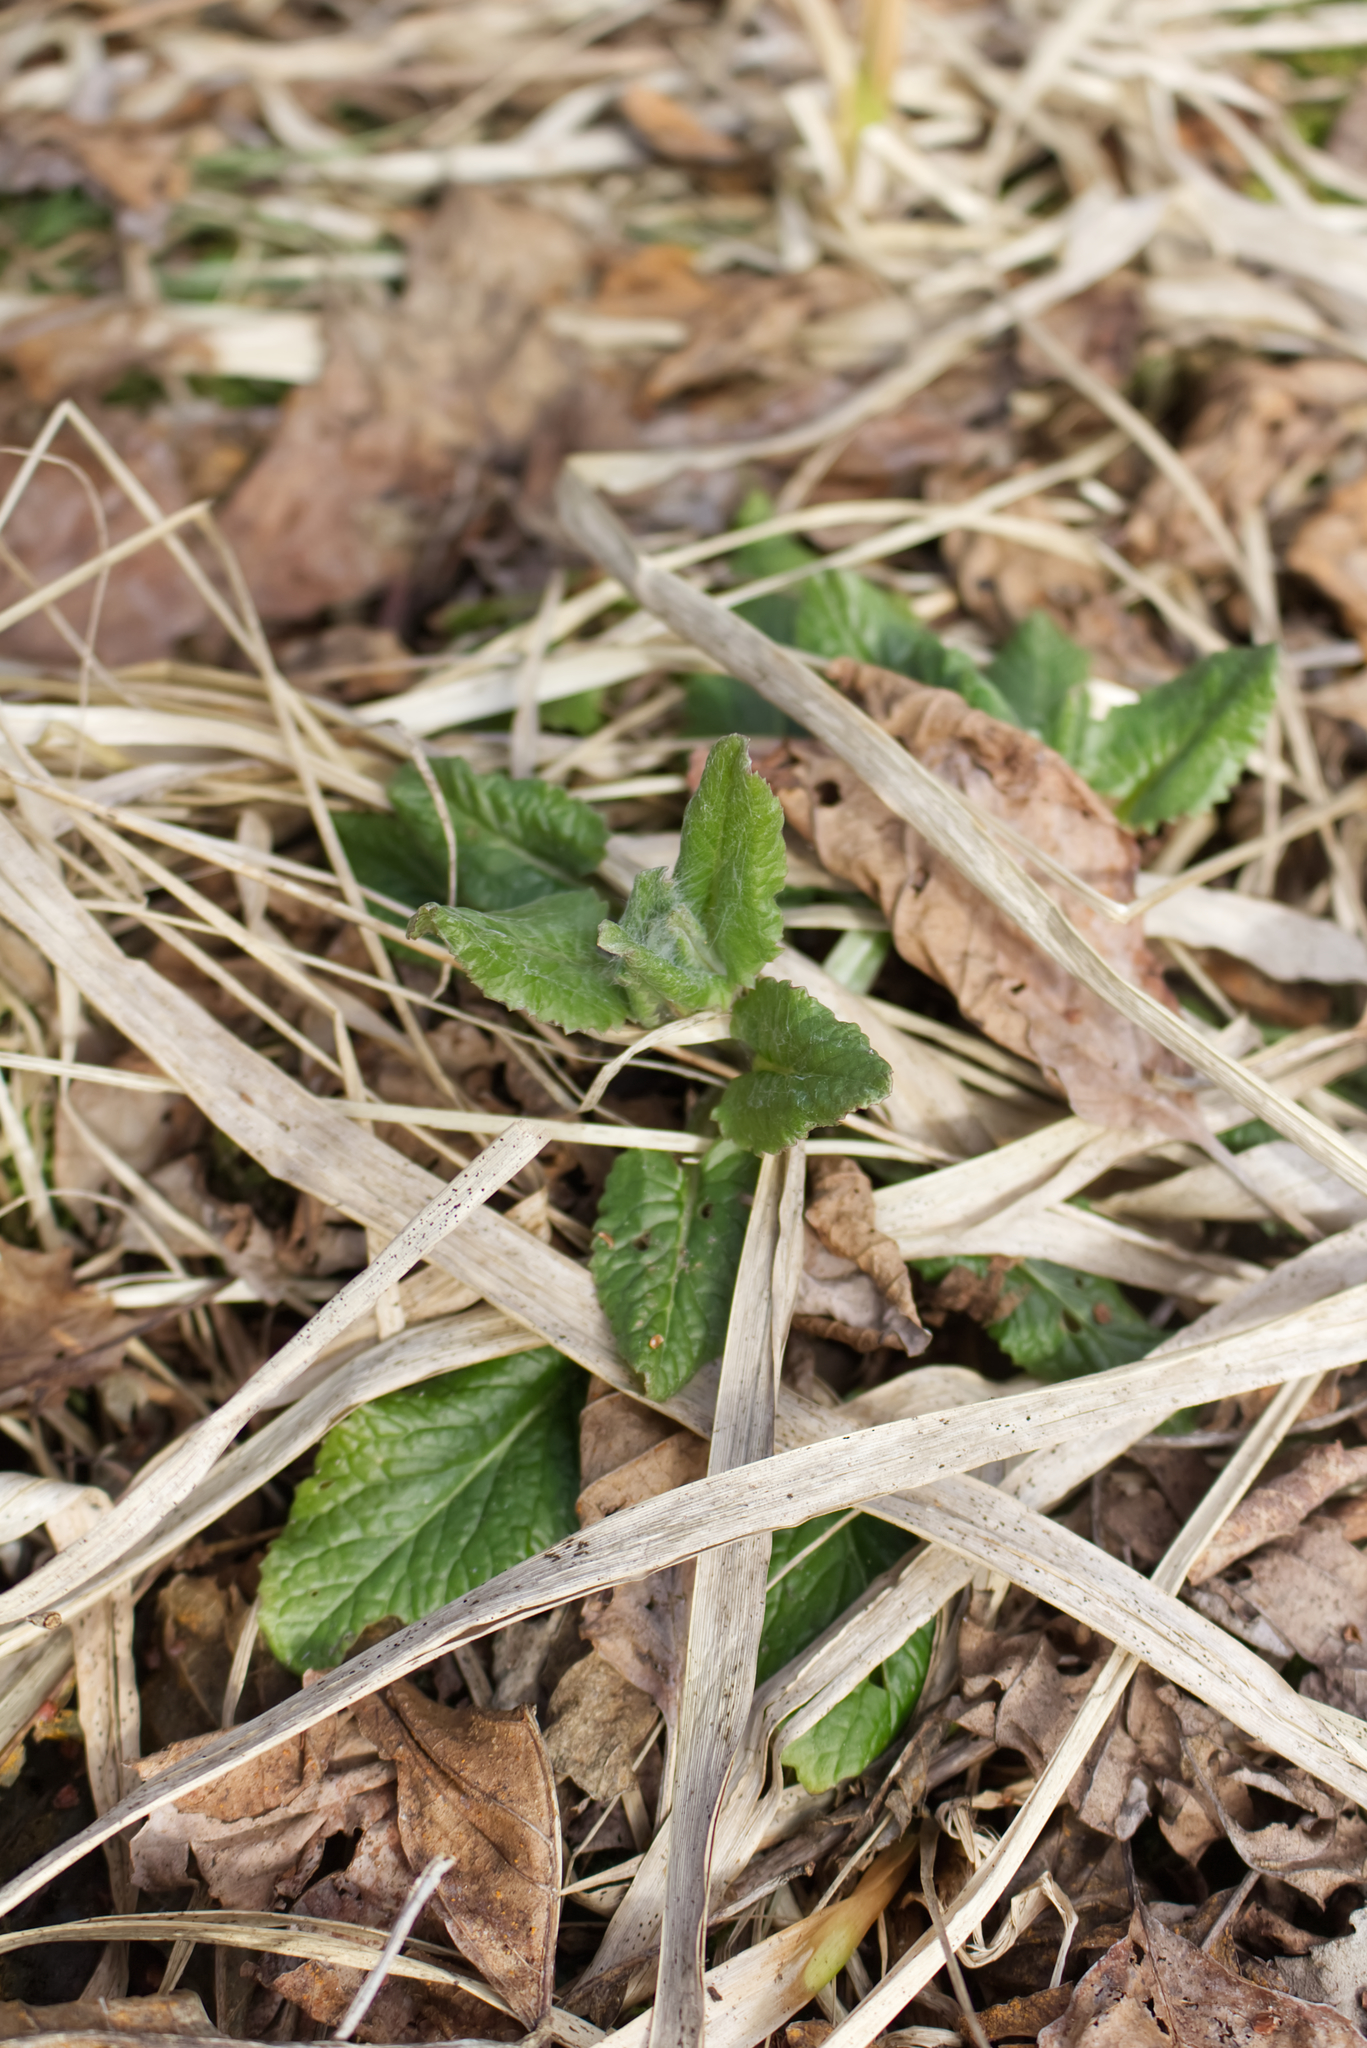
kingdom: Plantae
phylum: Tracheophyta
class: Magnoliopsida
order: Asterales
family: Asteraceae
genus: Tephroseris
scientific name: Tephroseris crispa
